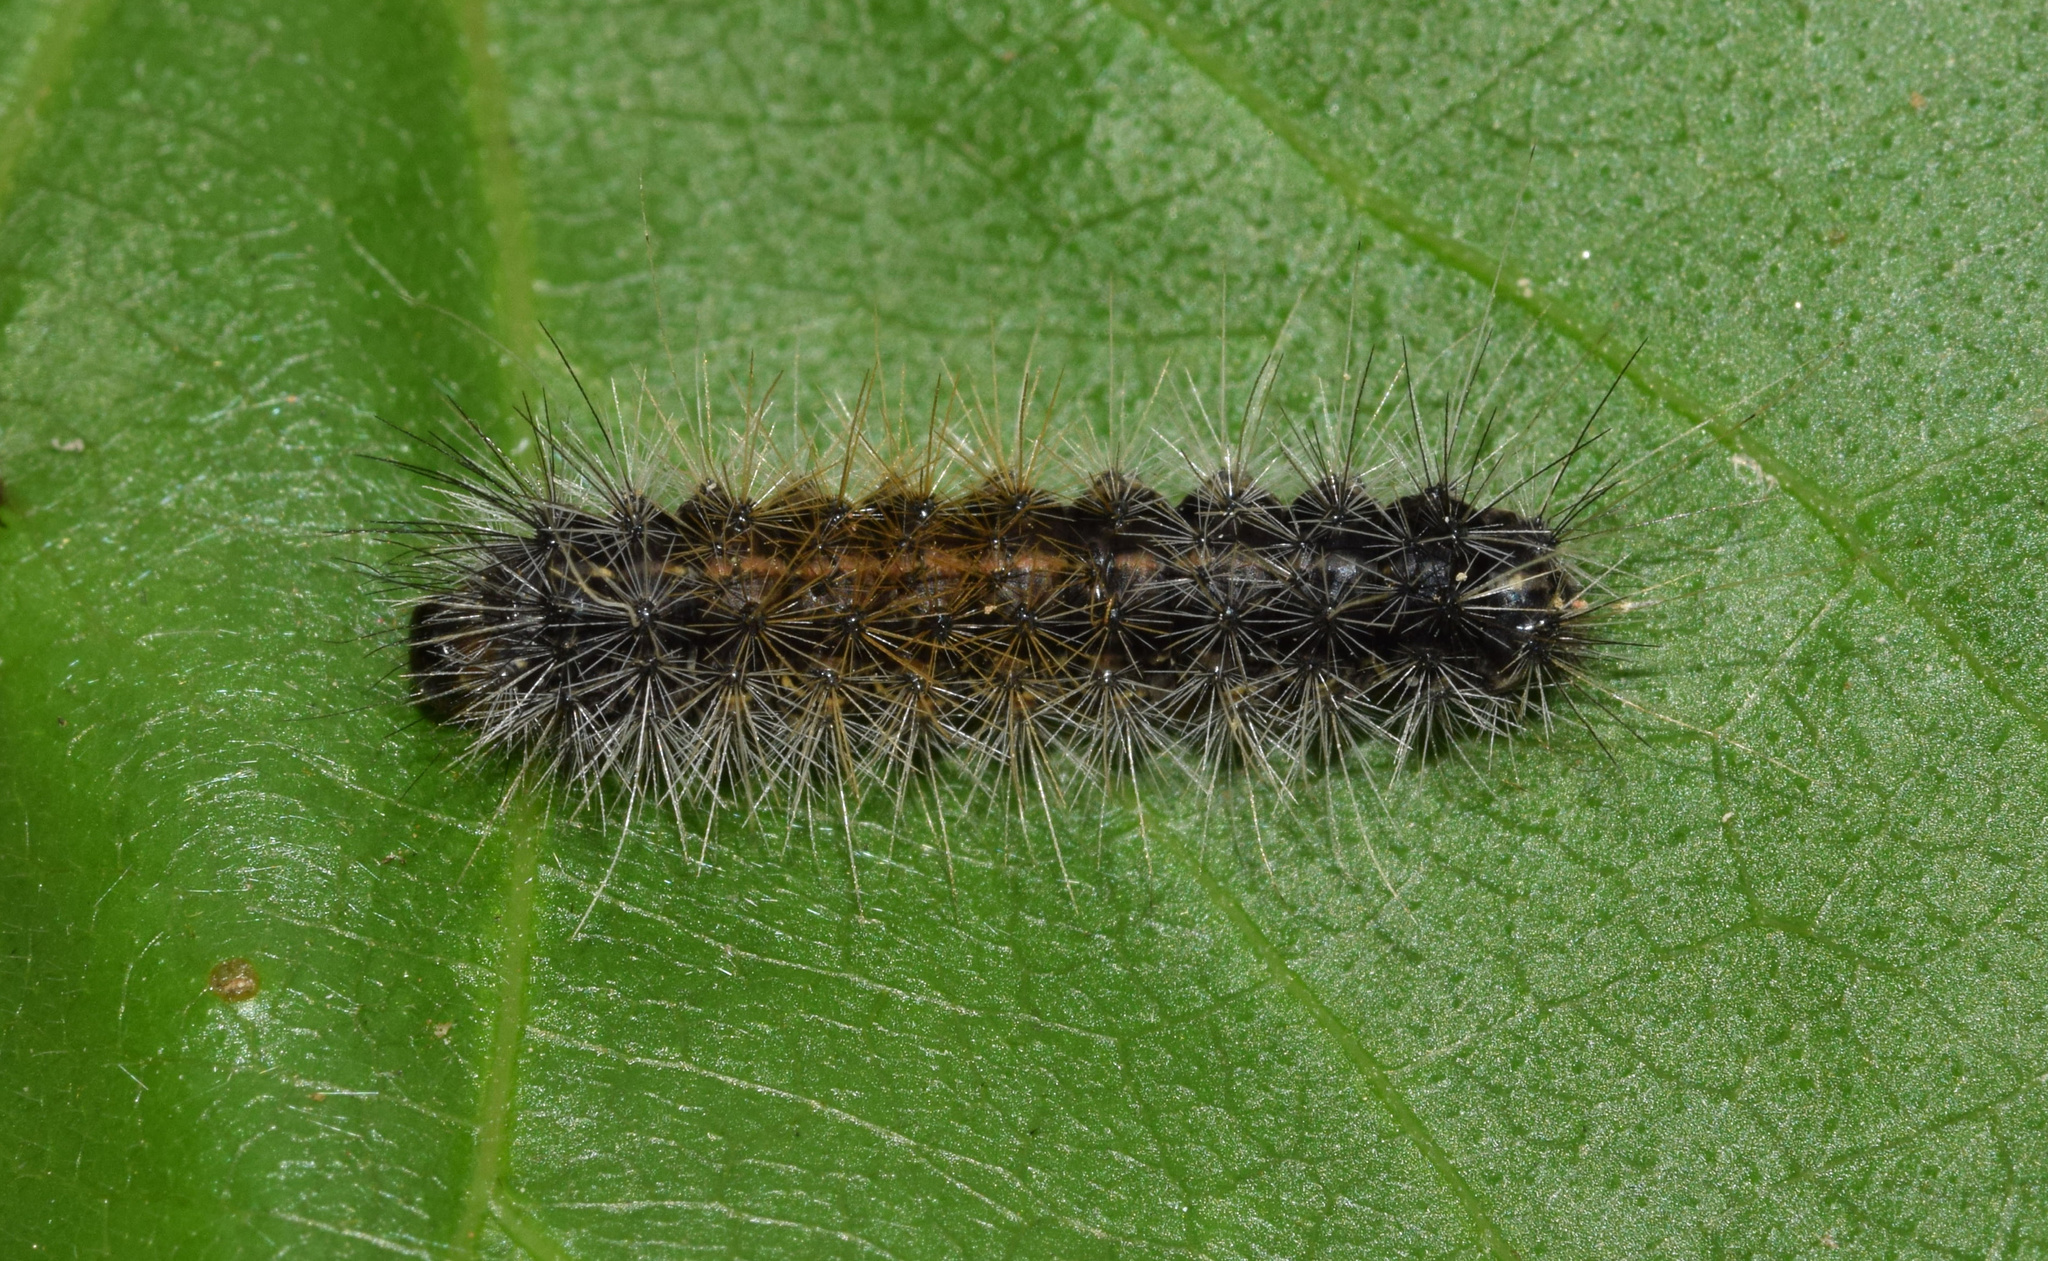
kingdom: Animalia
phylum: Arthropoda
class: Insecta
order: Lepidoptera
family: Erebidae
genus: Rhodogastria
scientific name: Rhodogastria similis
